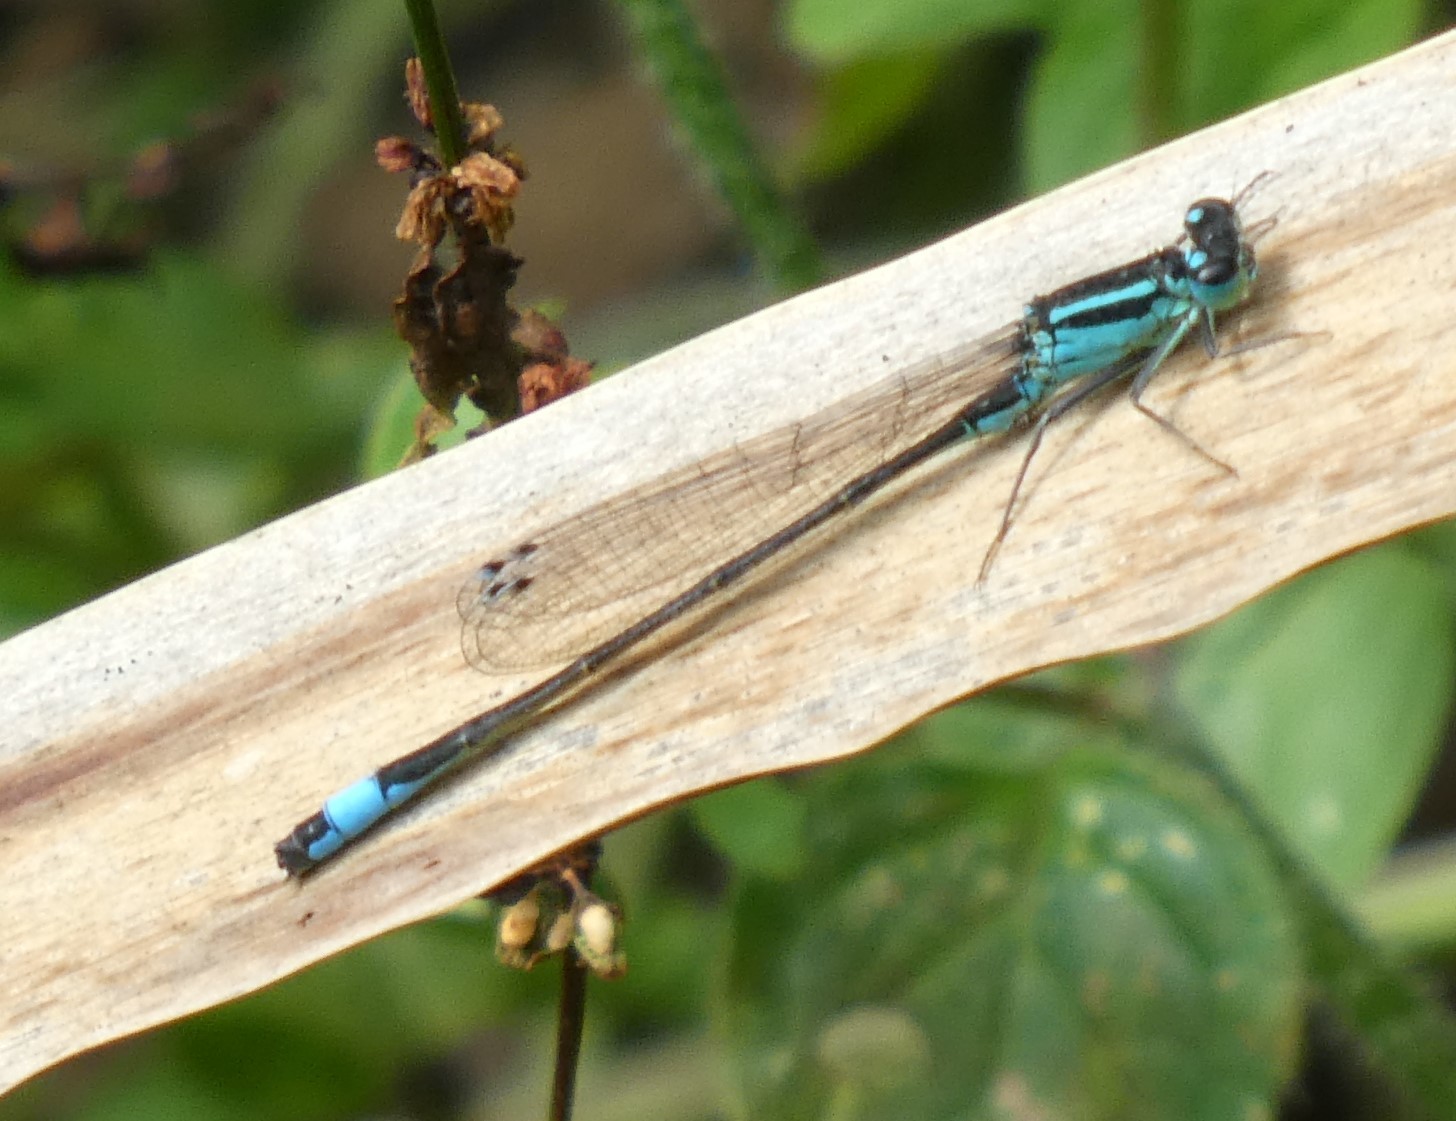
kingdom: Animalia
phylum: Arthropoda
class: Insecta
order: Odonata
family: Coenagrionidae
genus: Ischnura
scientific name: Ischnura elegans
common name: Blue-tailed damselfly
